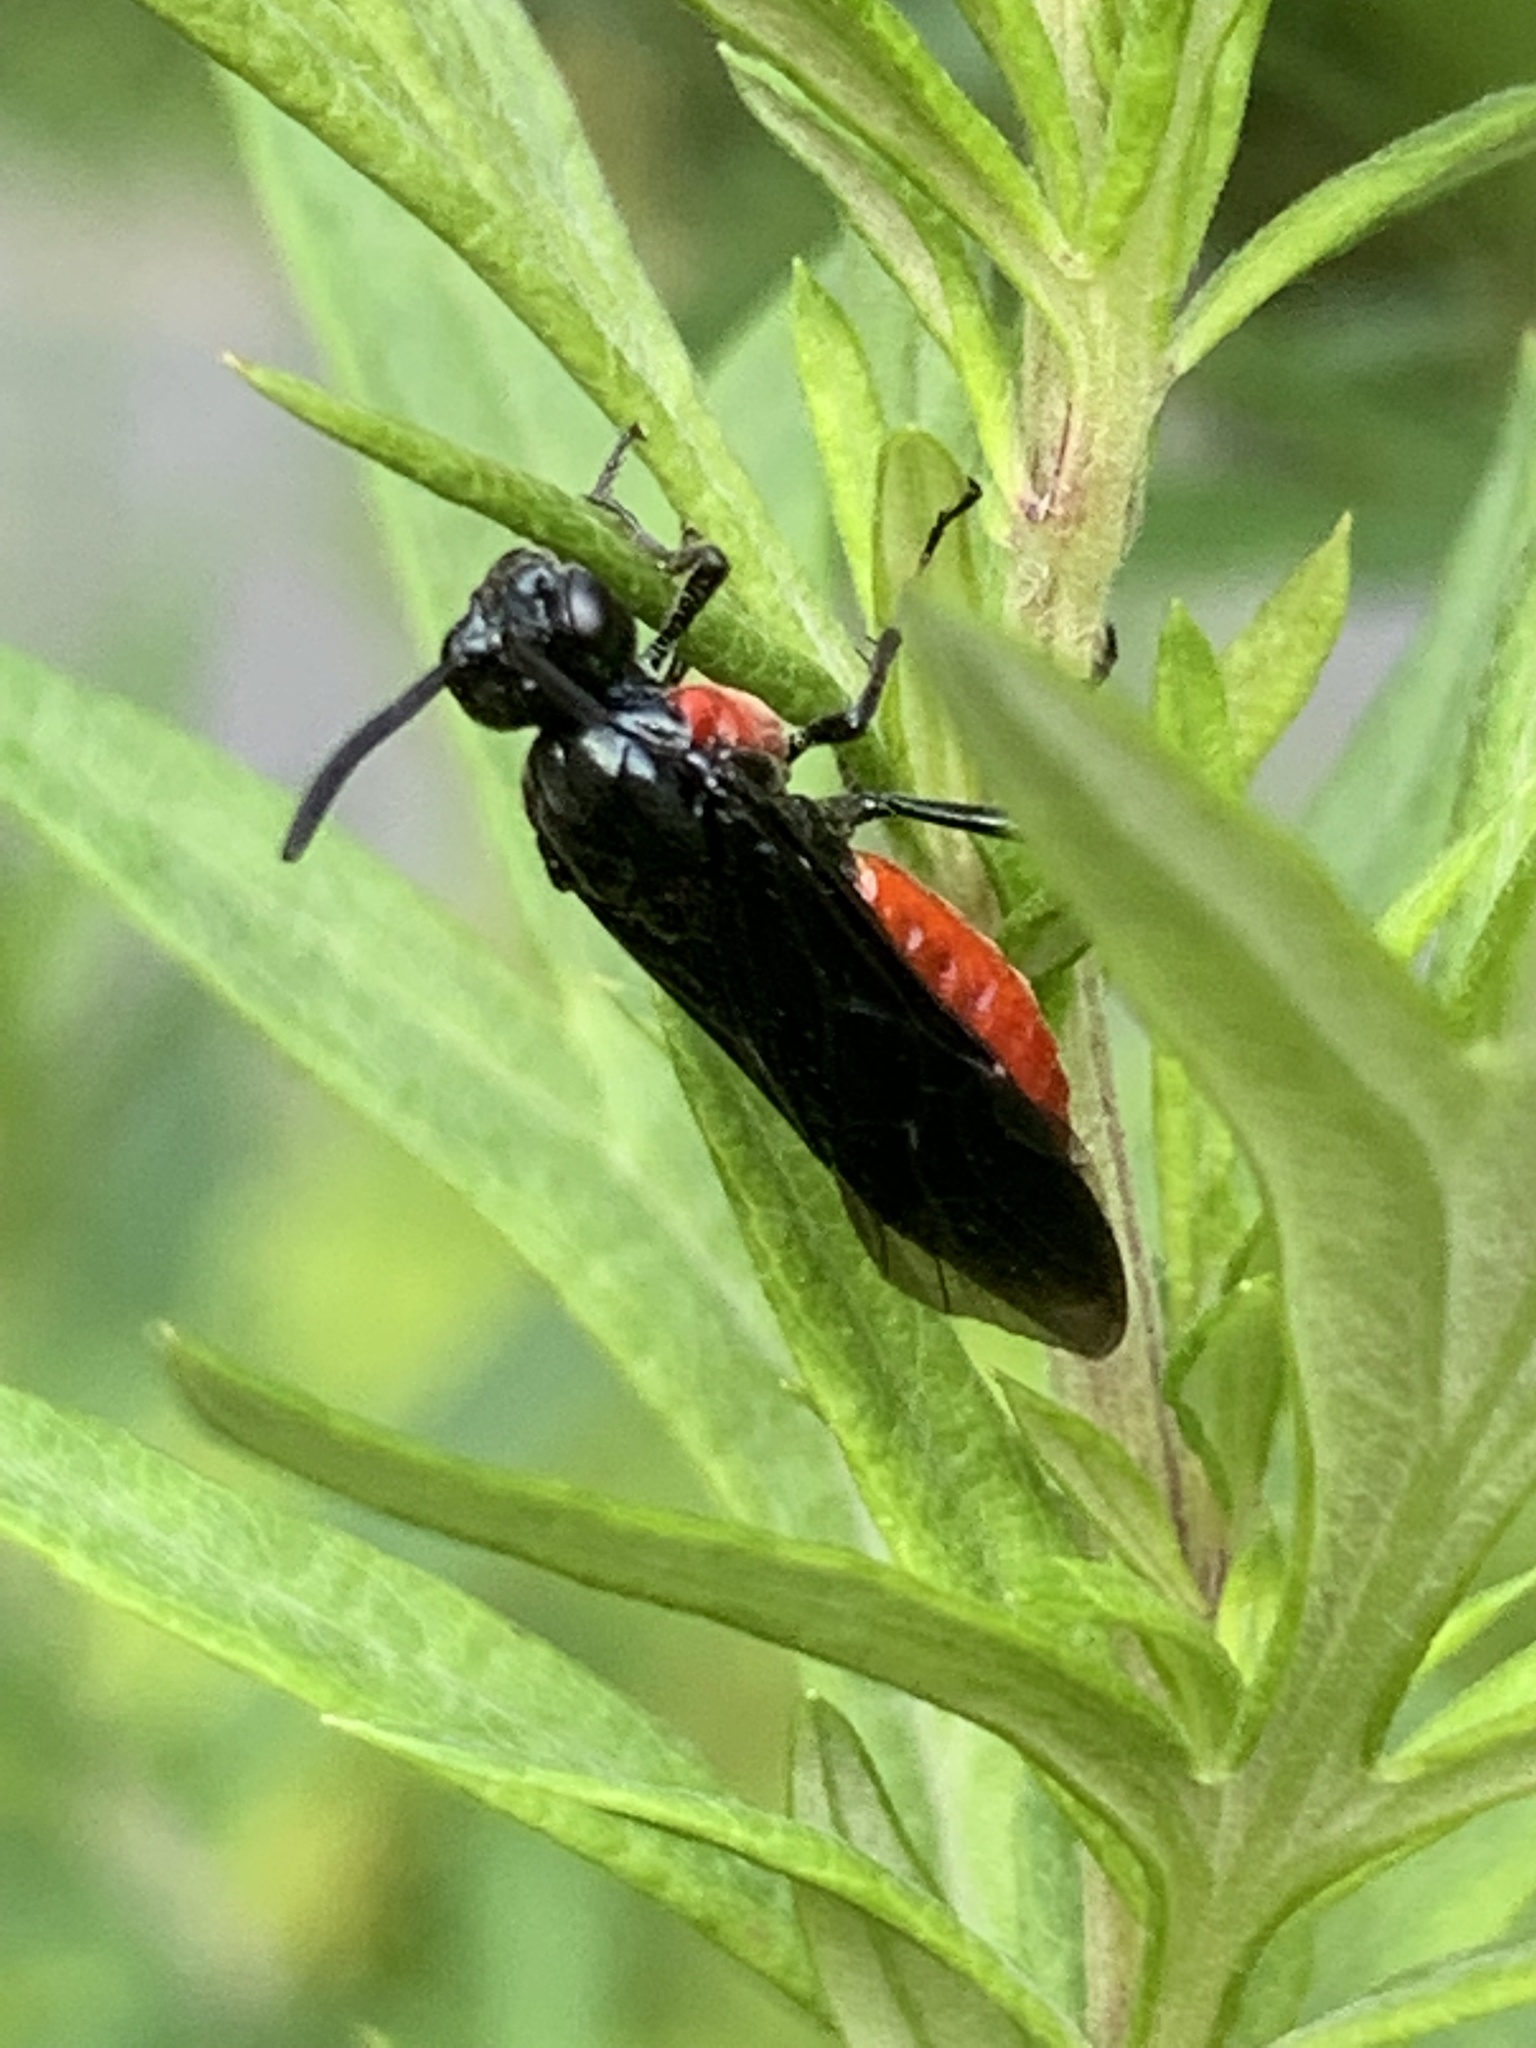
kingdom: Animalia
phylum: Arthropoda
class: Insecta
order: Hymenoptera
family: Argidae
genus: Arge
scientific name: Arge humeralis
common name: Poison ivy sawfly
